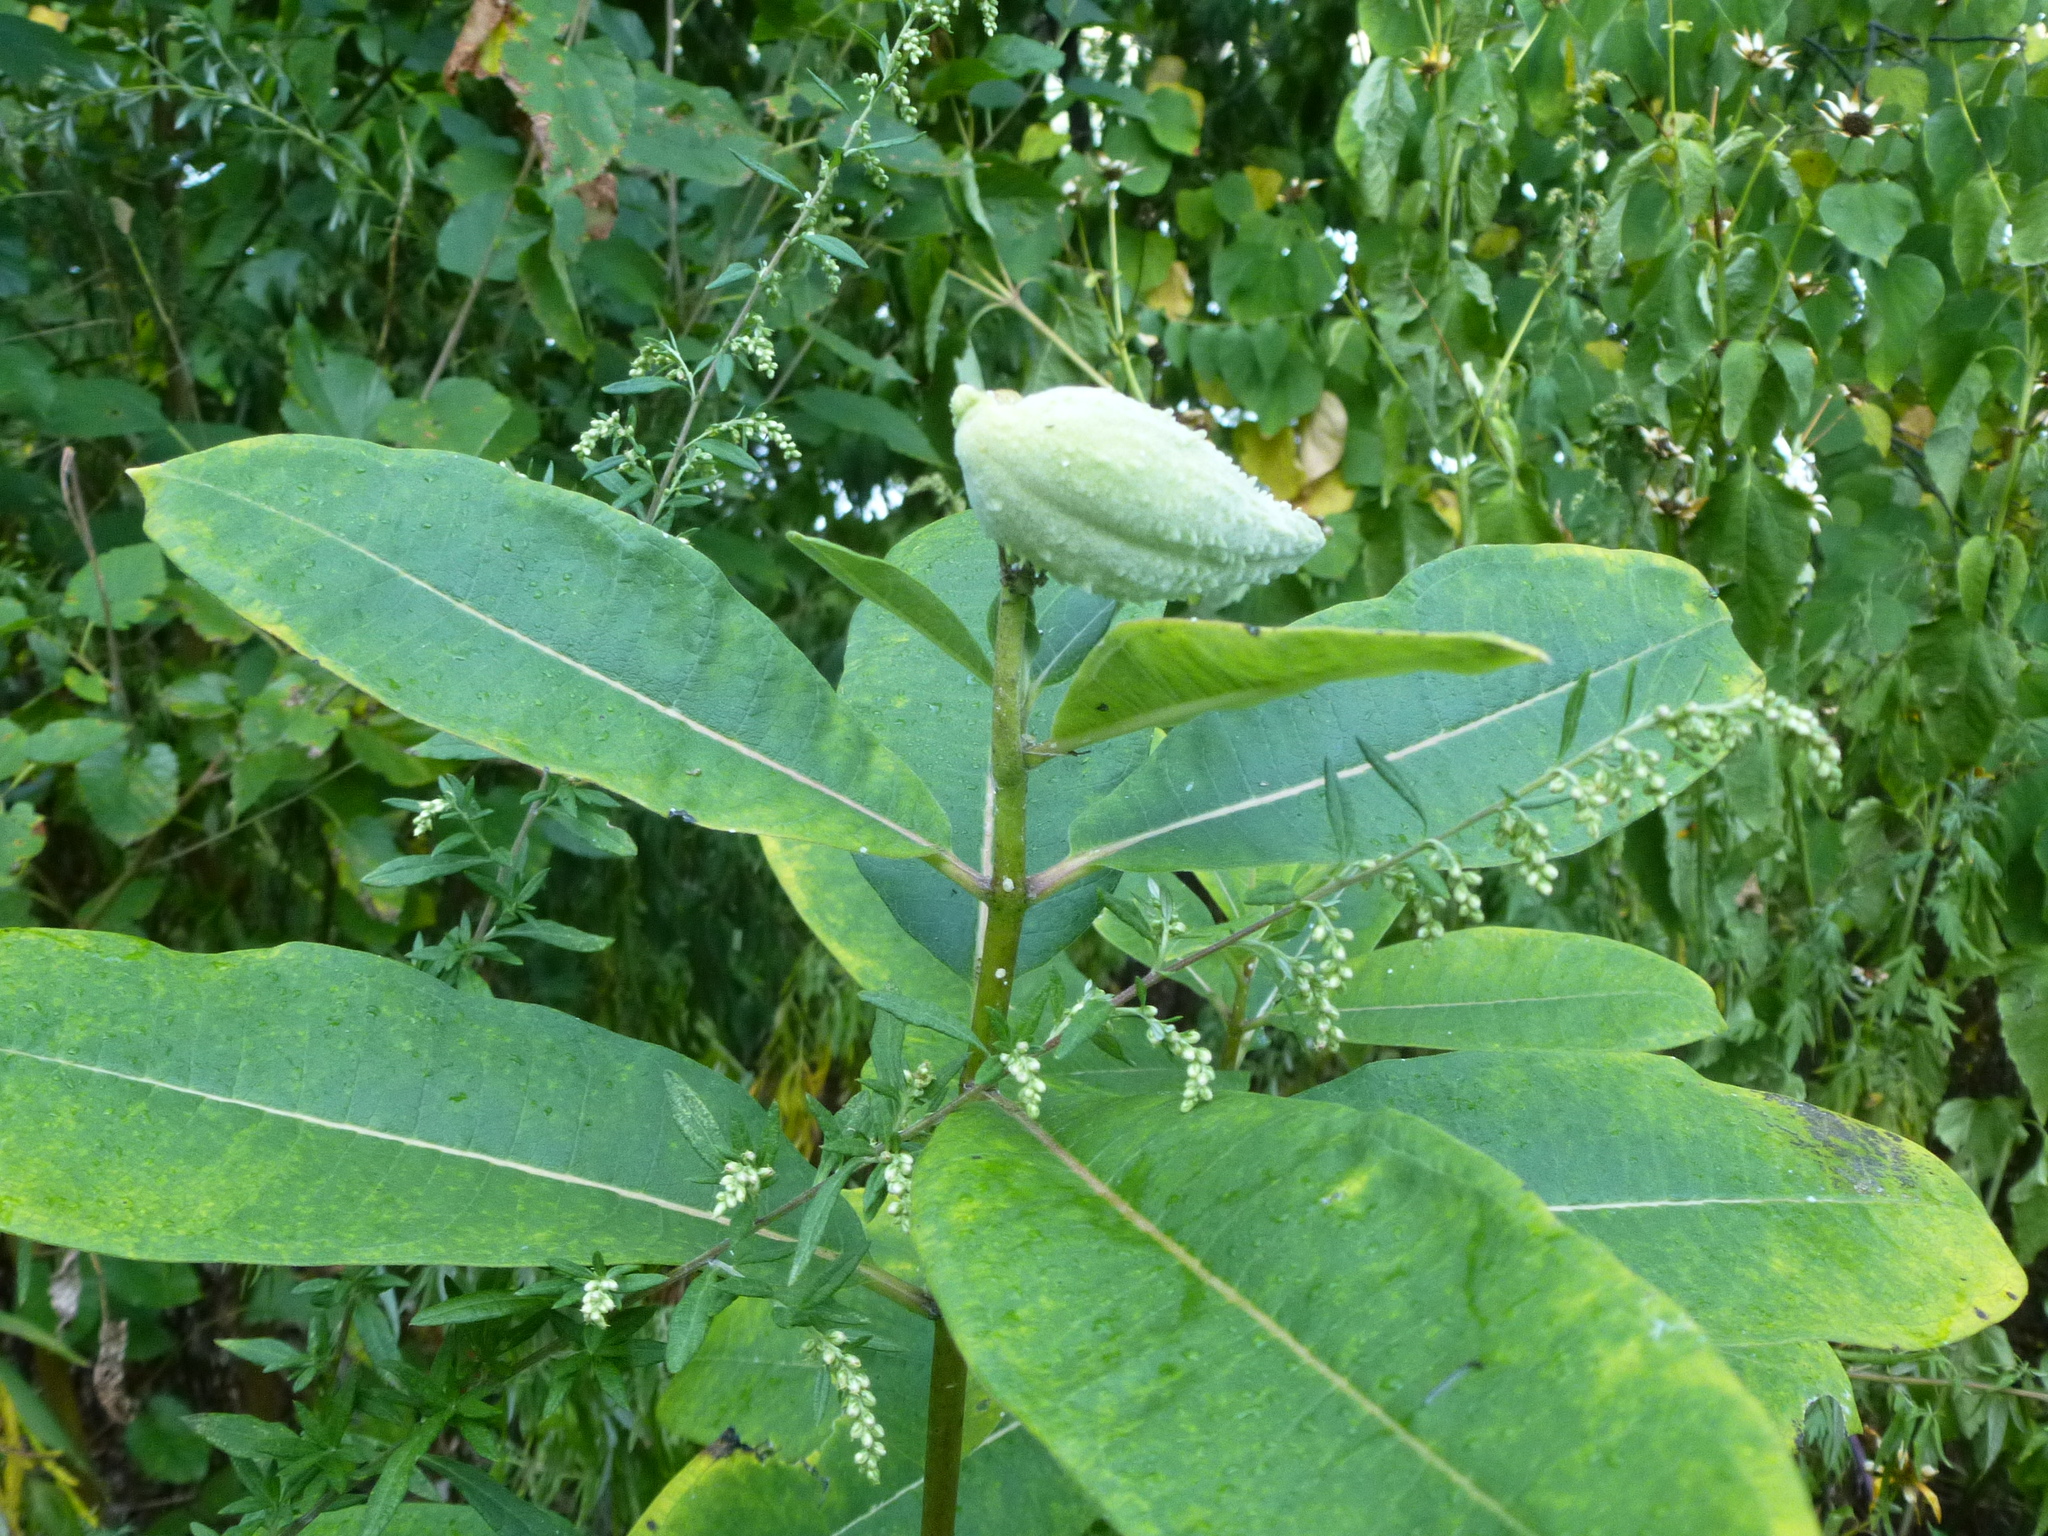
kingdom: Plantae
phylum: Tracheophyta
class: Magnoliopsida
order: Gentianales
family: Apocynaceae
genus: Asclepias
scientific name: Asclepias syriaca
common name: Common milkweed
